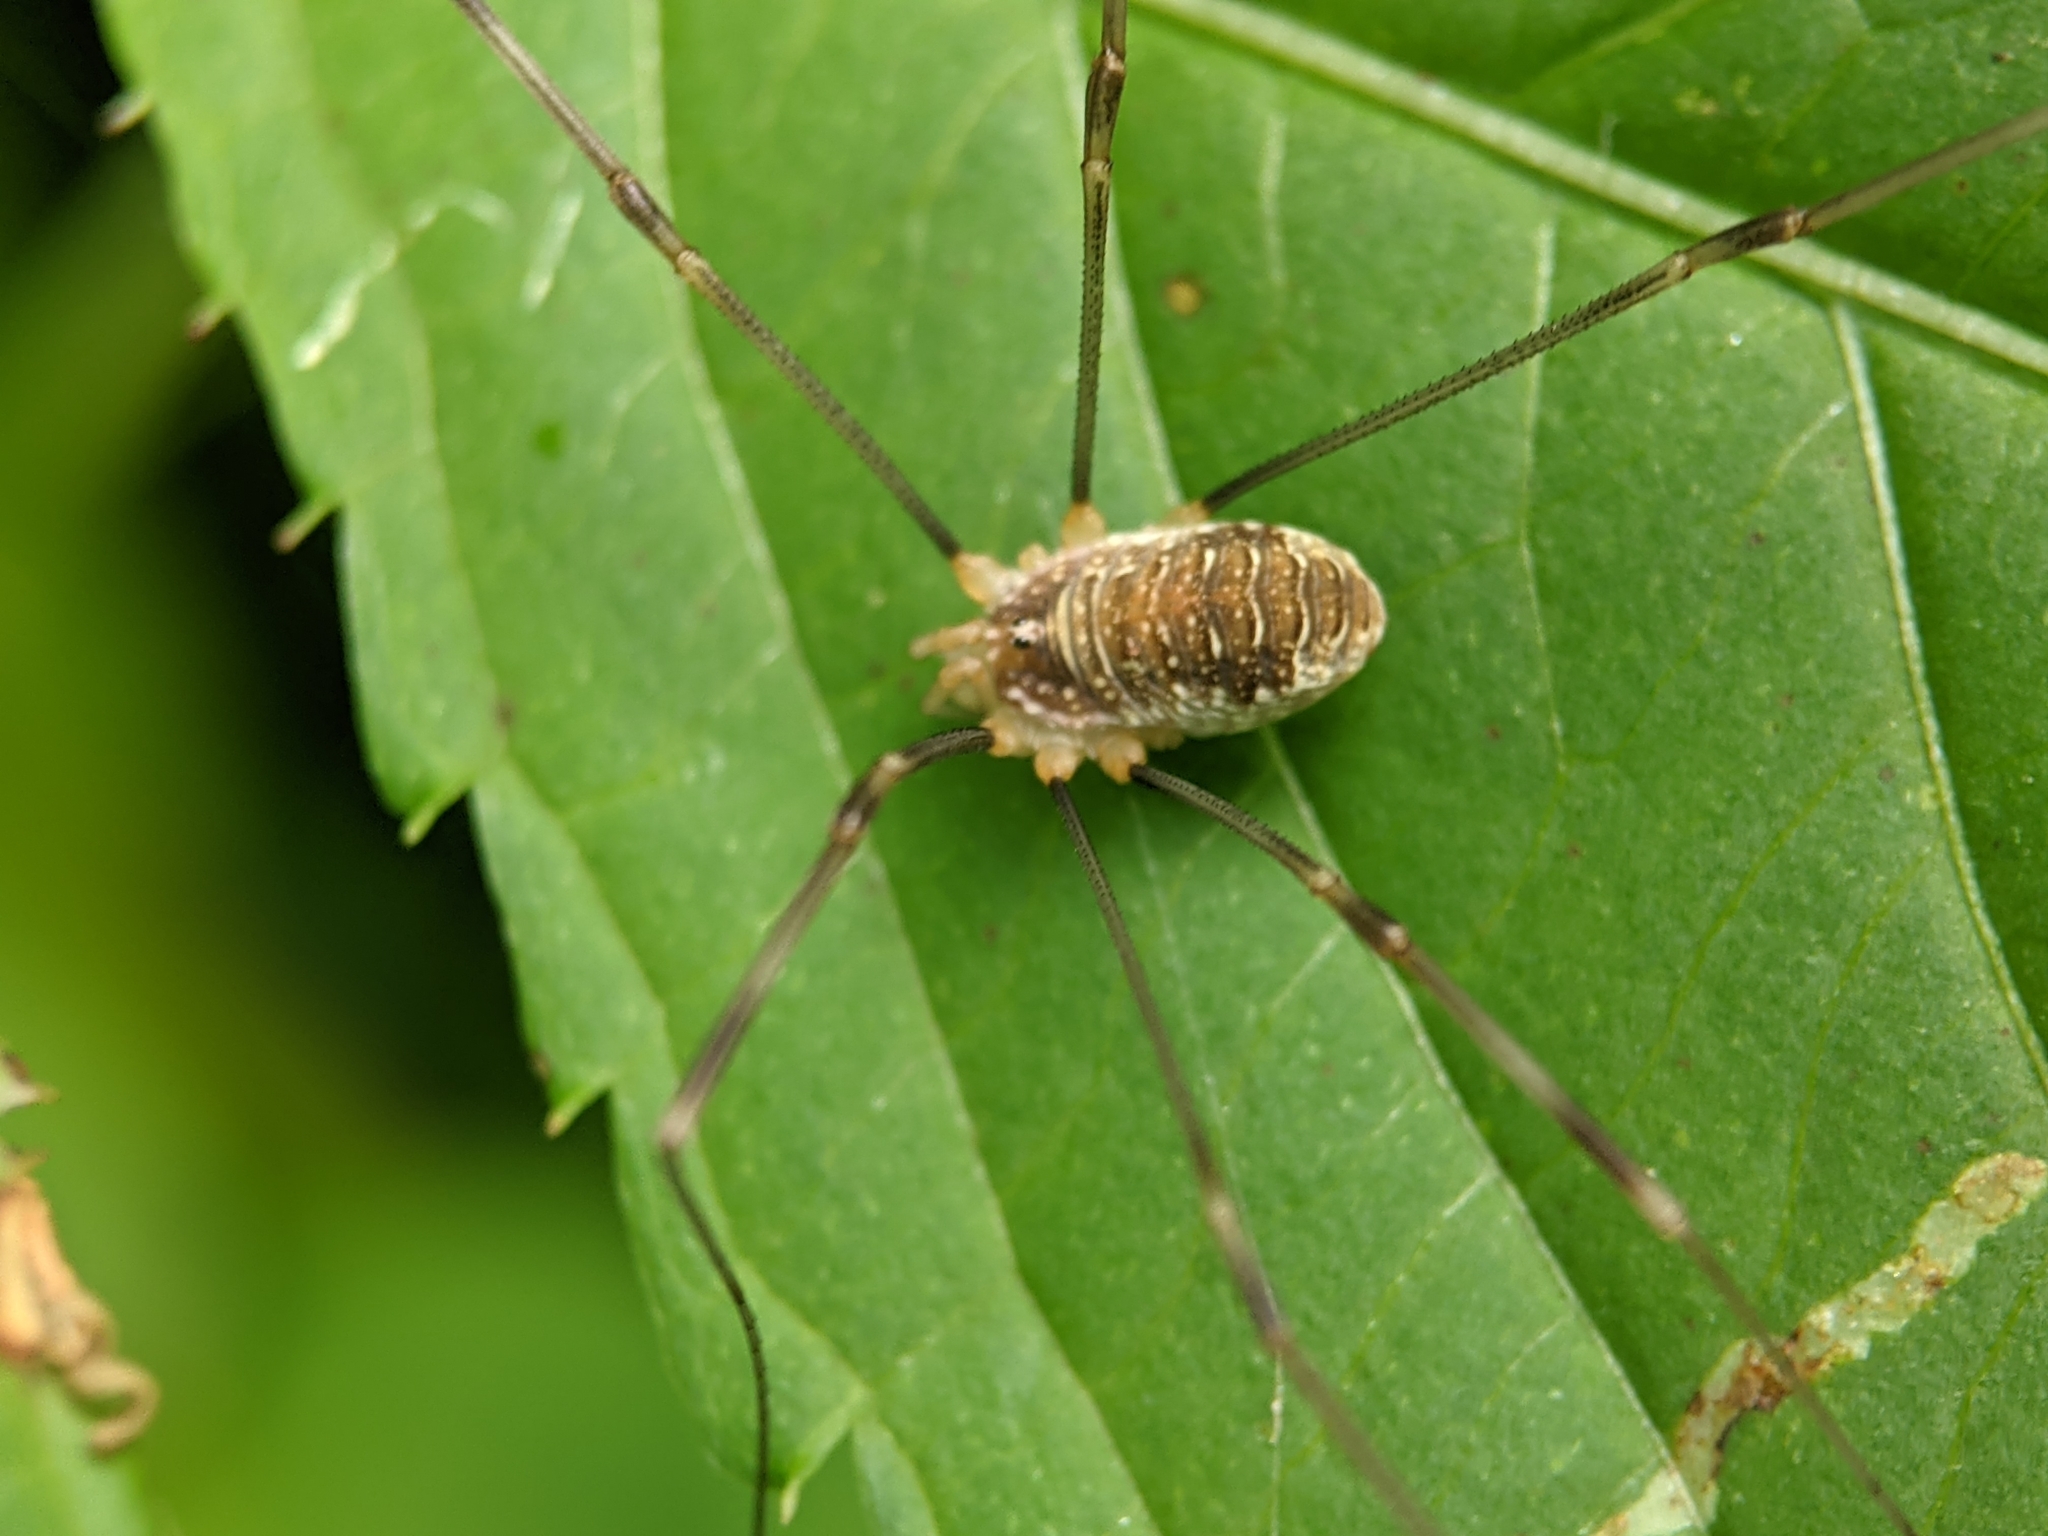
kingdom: Animalia
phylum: Arthropoda
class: Arachnida
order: Opiliones
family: Phalangiidae
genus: Opilio
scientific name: Opilio canestrinii
